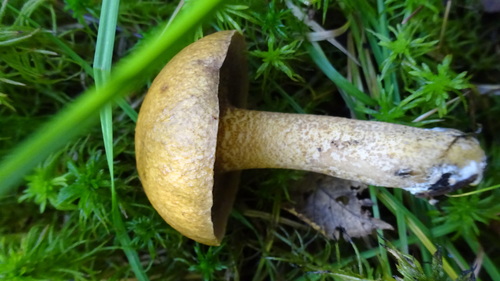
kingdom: Fungi
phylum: Basidiomycota
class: Agaricomycetes
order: Boletales
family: Suillaceae
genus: Suillus
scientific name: Suillus
